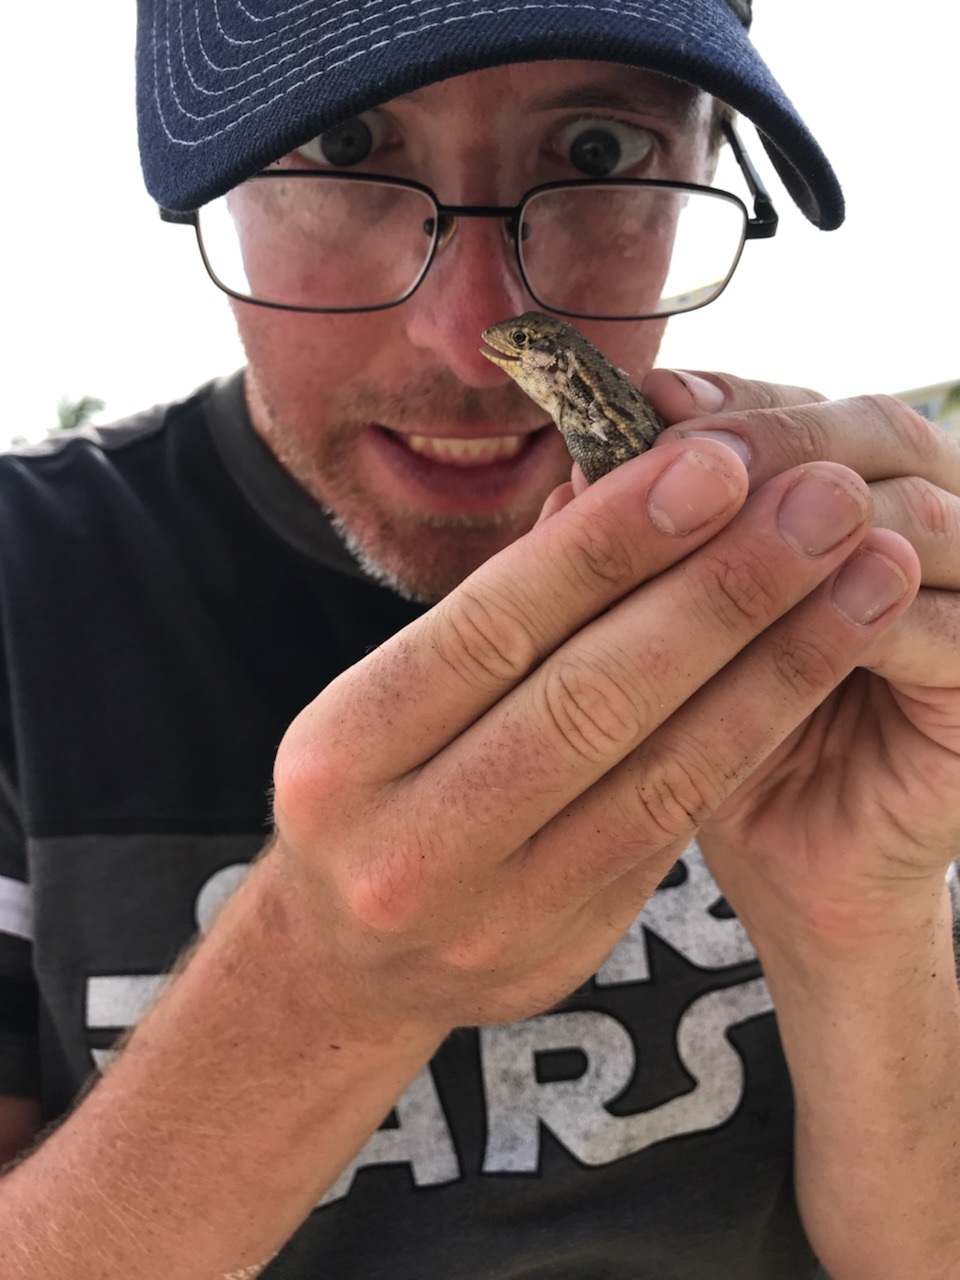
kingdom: Animalia
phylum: Chordata
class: Squamata
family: Leiocephalidae
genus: Leiocephalus
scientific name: Leiocephalus carinatus
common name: Northern curly-tailed lizard
